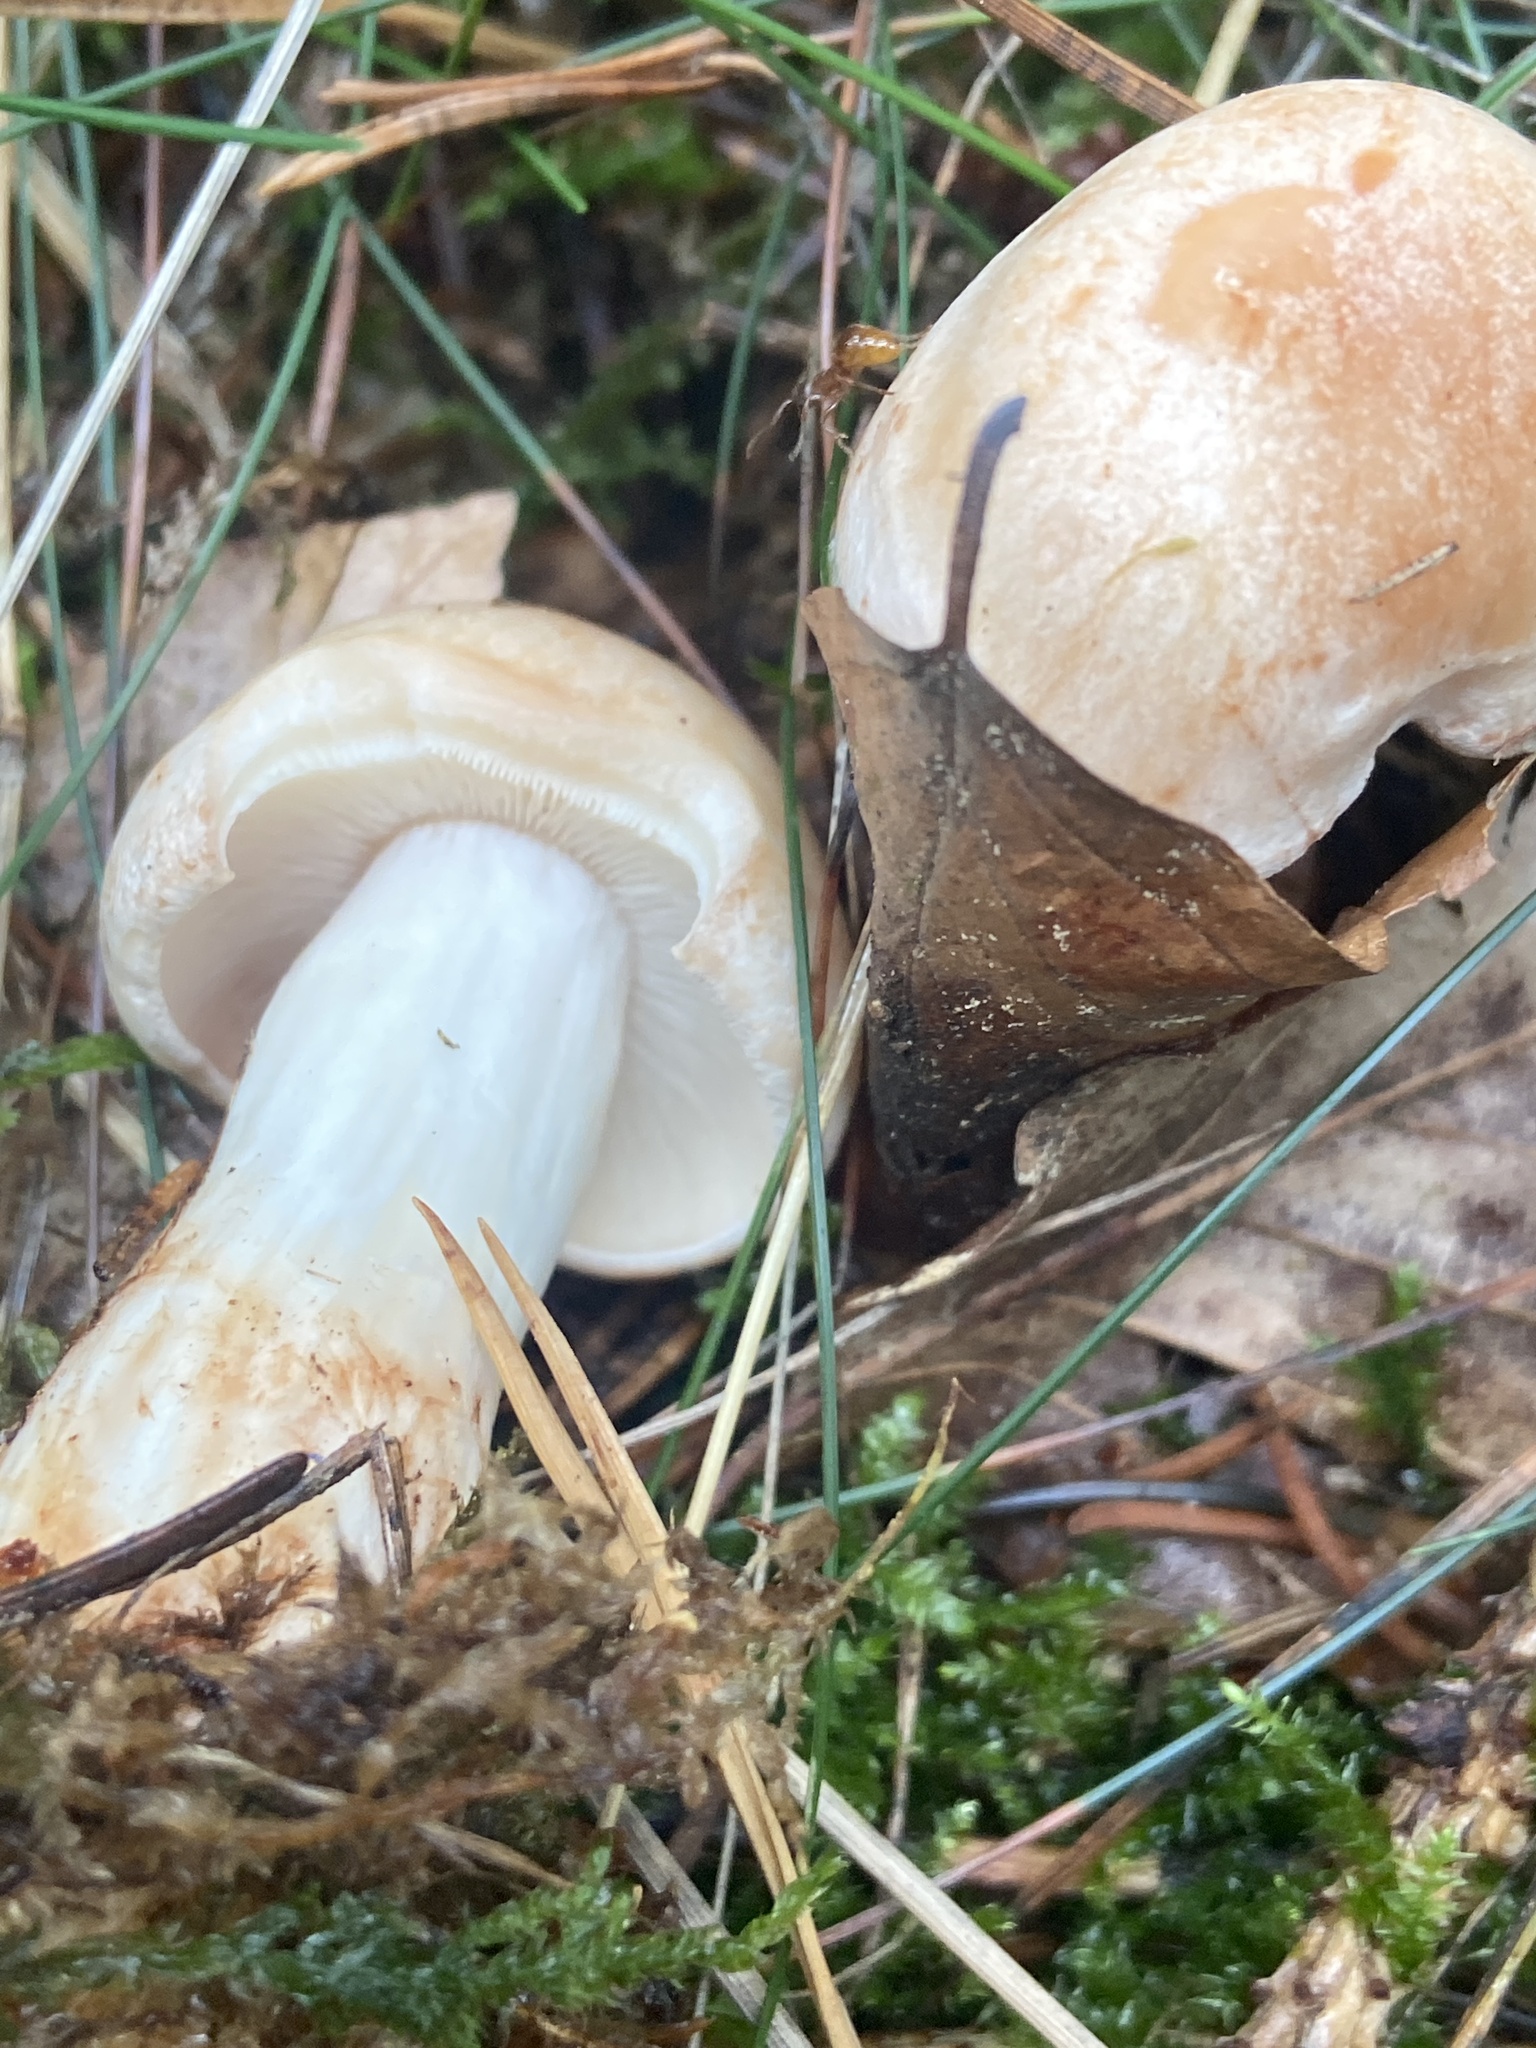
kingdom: Fungi
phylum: Basidiomycota
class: Agaricomycetes
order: Agaricales
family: Omphalotaceae
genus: Rhodocollybia
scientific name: Rhodocollybia maculata
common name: Spotted tough-shank
